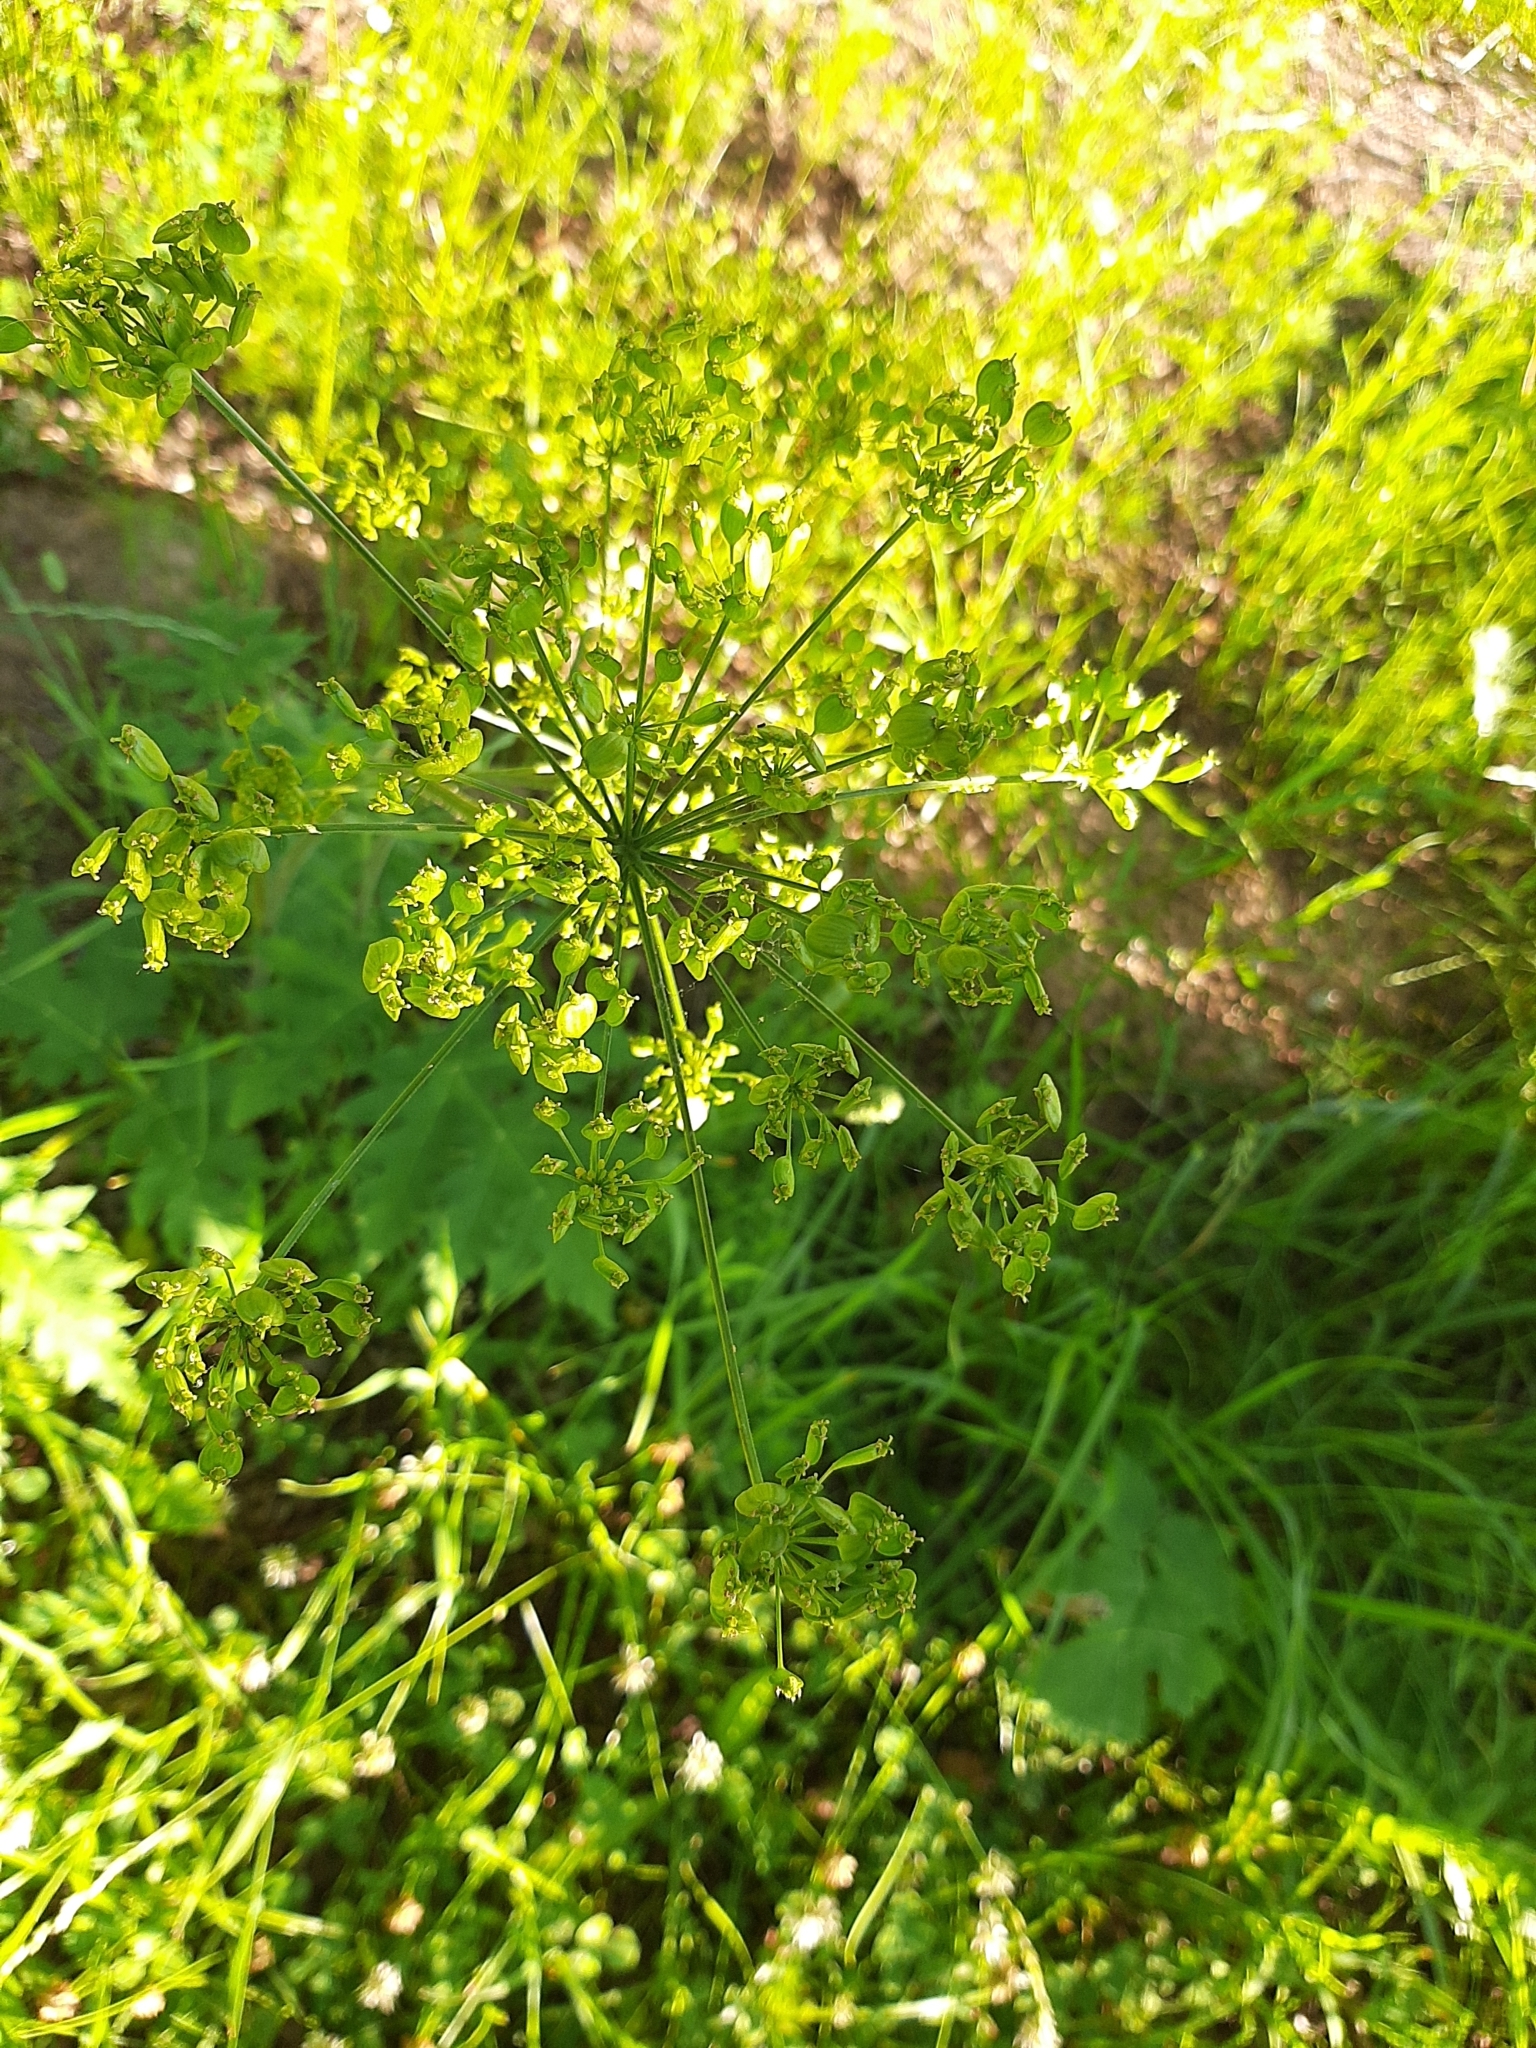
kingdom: Plantae
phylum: Tracheophyta
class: Magnoliopsida
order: Apiales
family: Apiaceae
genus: Heracleum
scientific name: Heracleum sphondylium
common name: Hogweed
